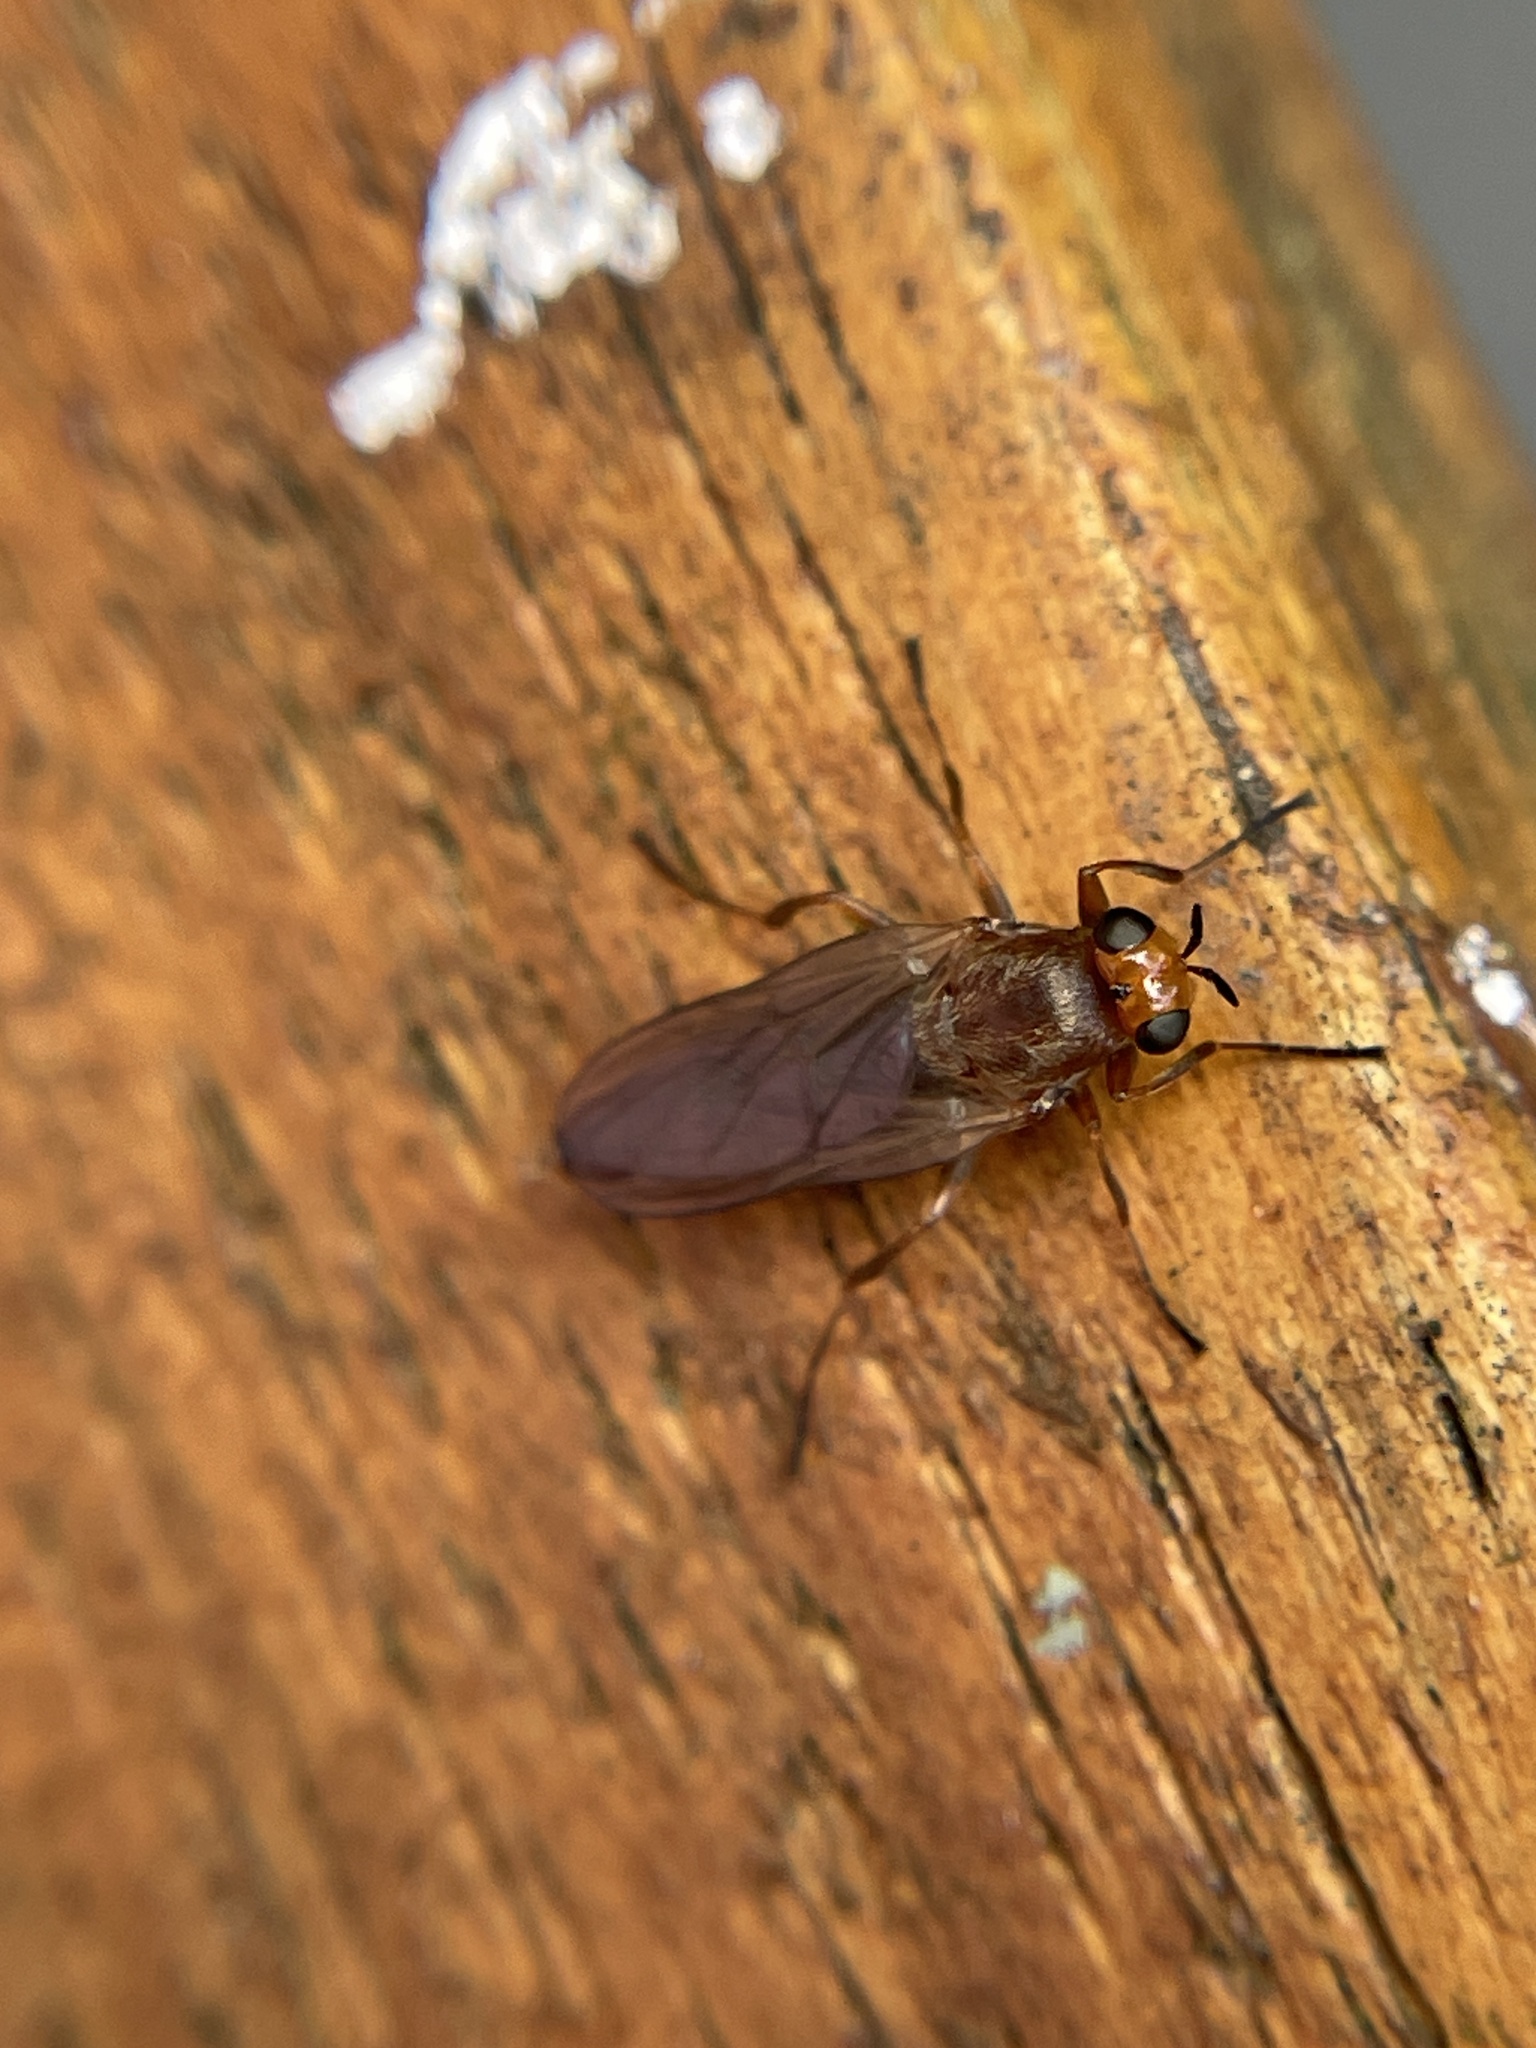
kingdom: Animalia
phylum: Arthropoda
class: Insecta
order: Diptera
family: Stratiomyidae
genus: Inopus
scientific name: Inopus rubriceps
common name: Soldier fly
